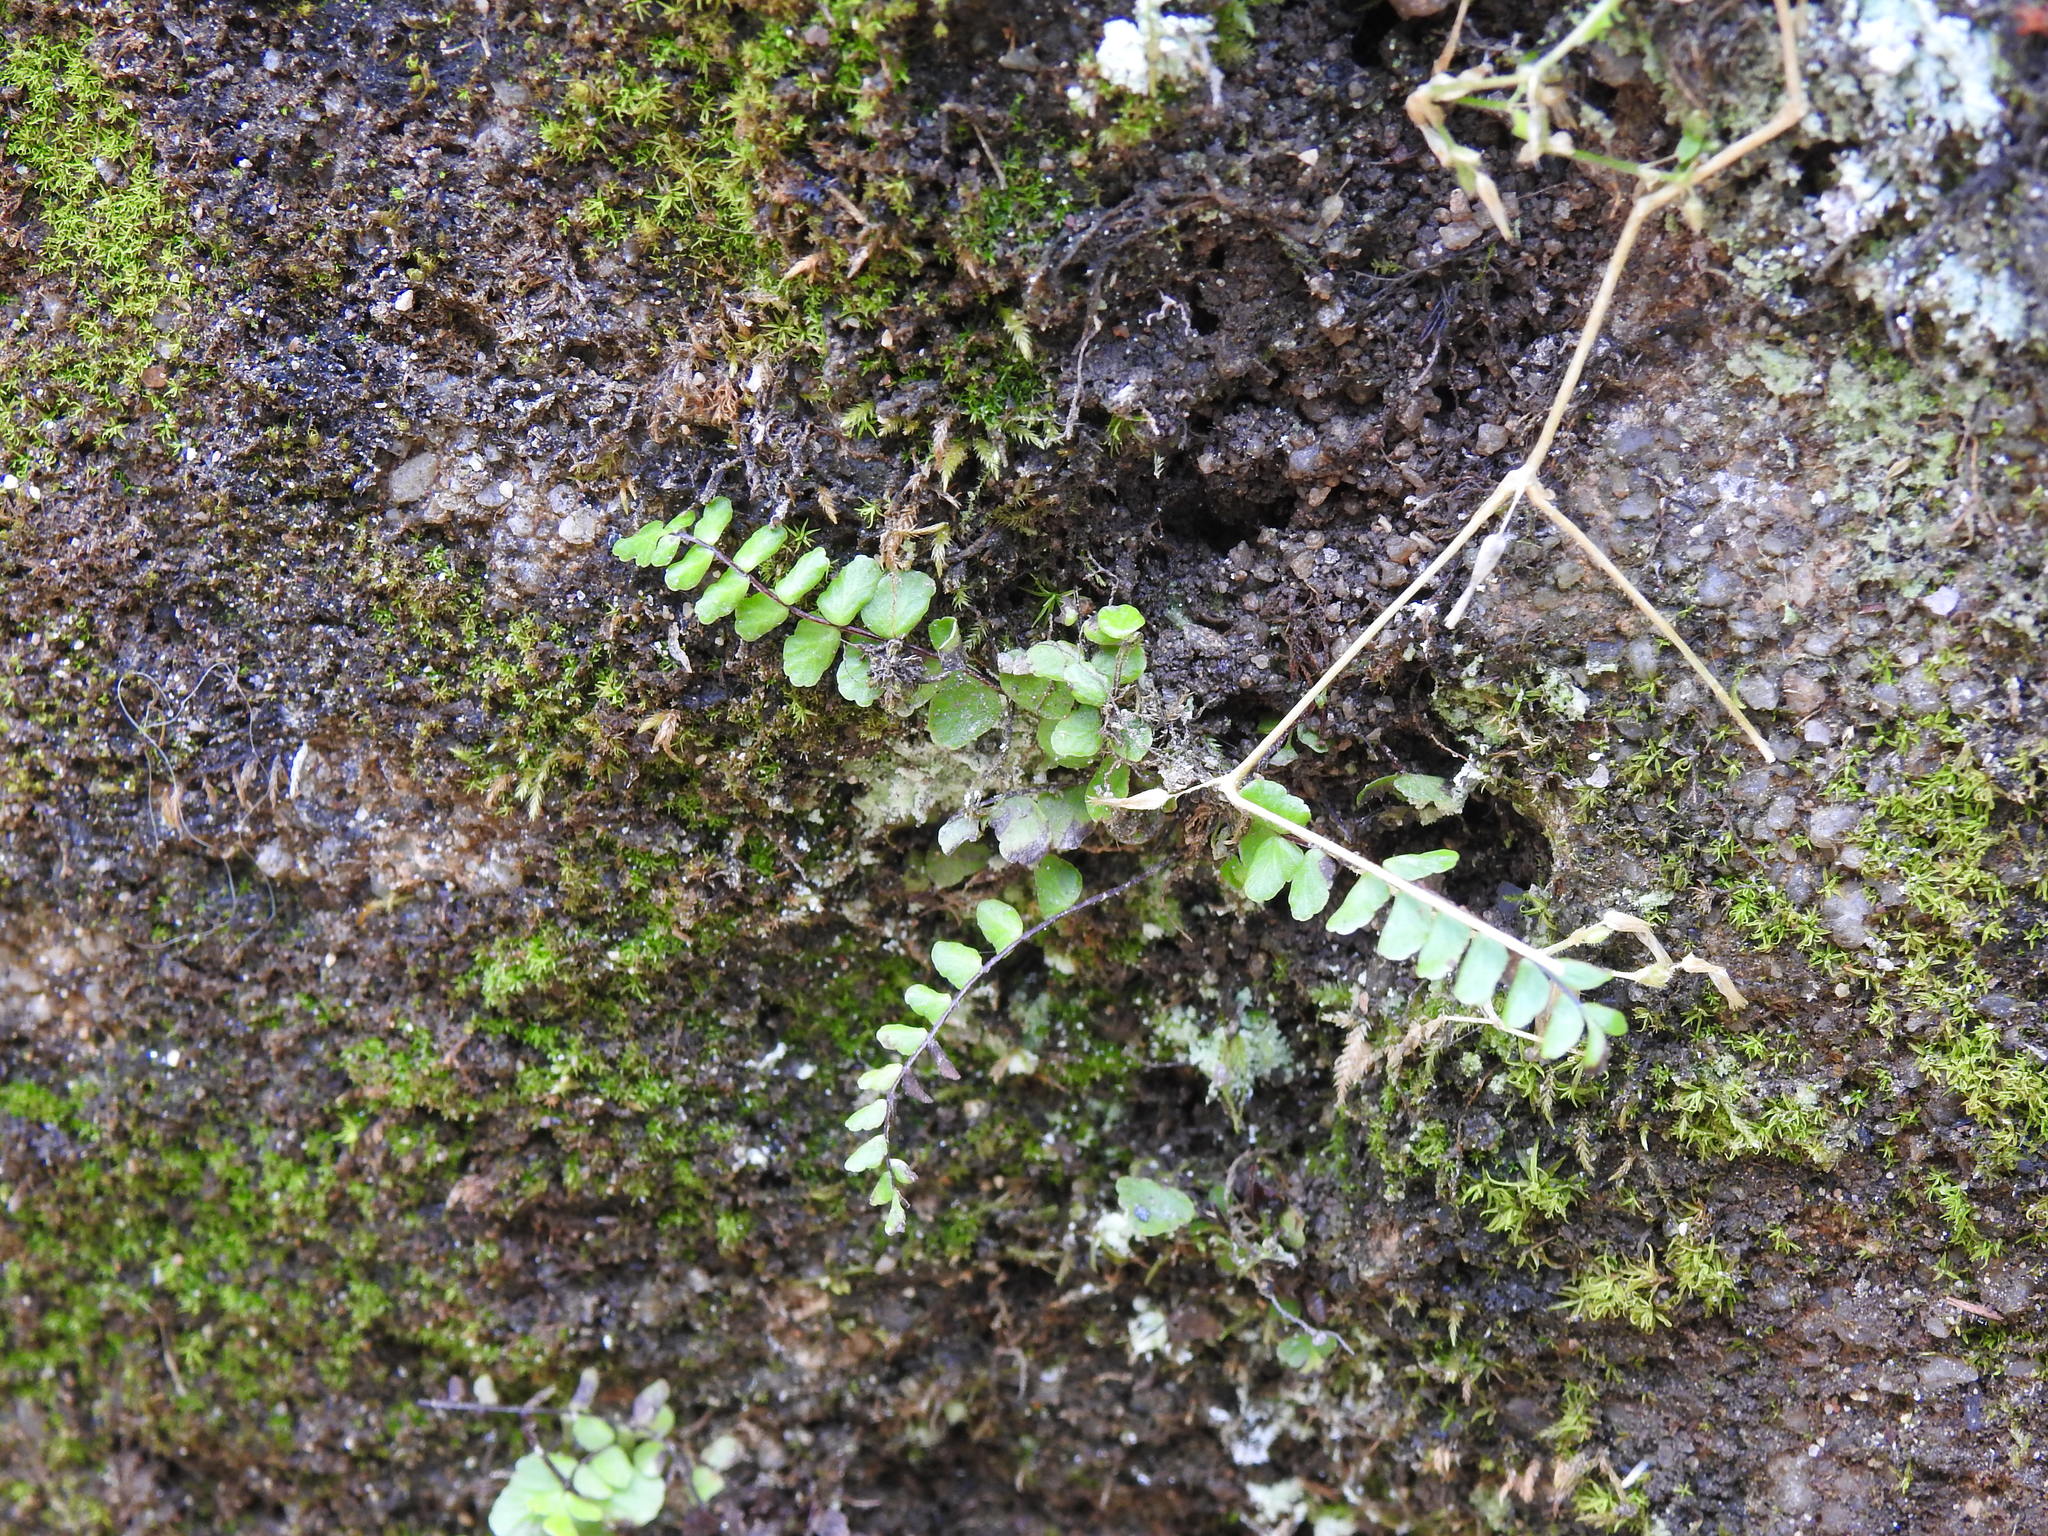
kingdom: Plantae
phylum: Tracheophyta
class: Polypodiopsida
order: Polypodiales
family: Aspleniaceae
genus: Asplenium
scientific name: Asplenium trichomanes
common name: Maidenhair spleenwort
